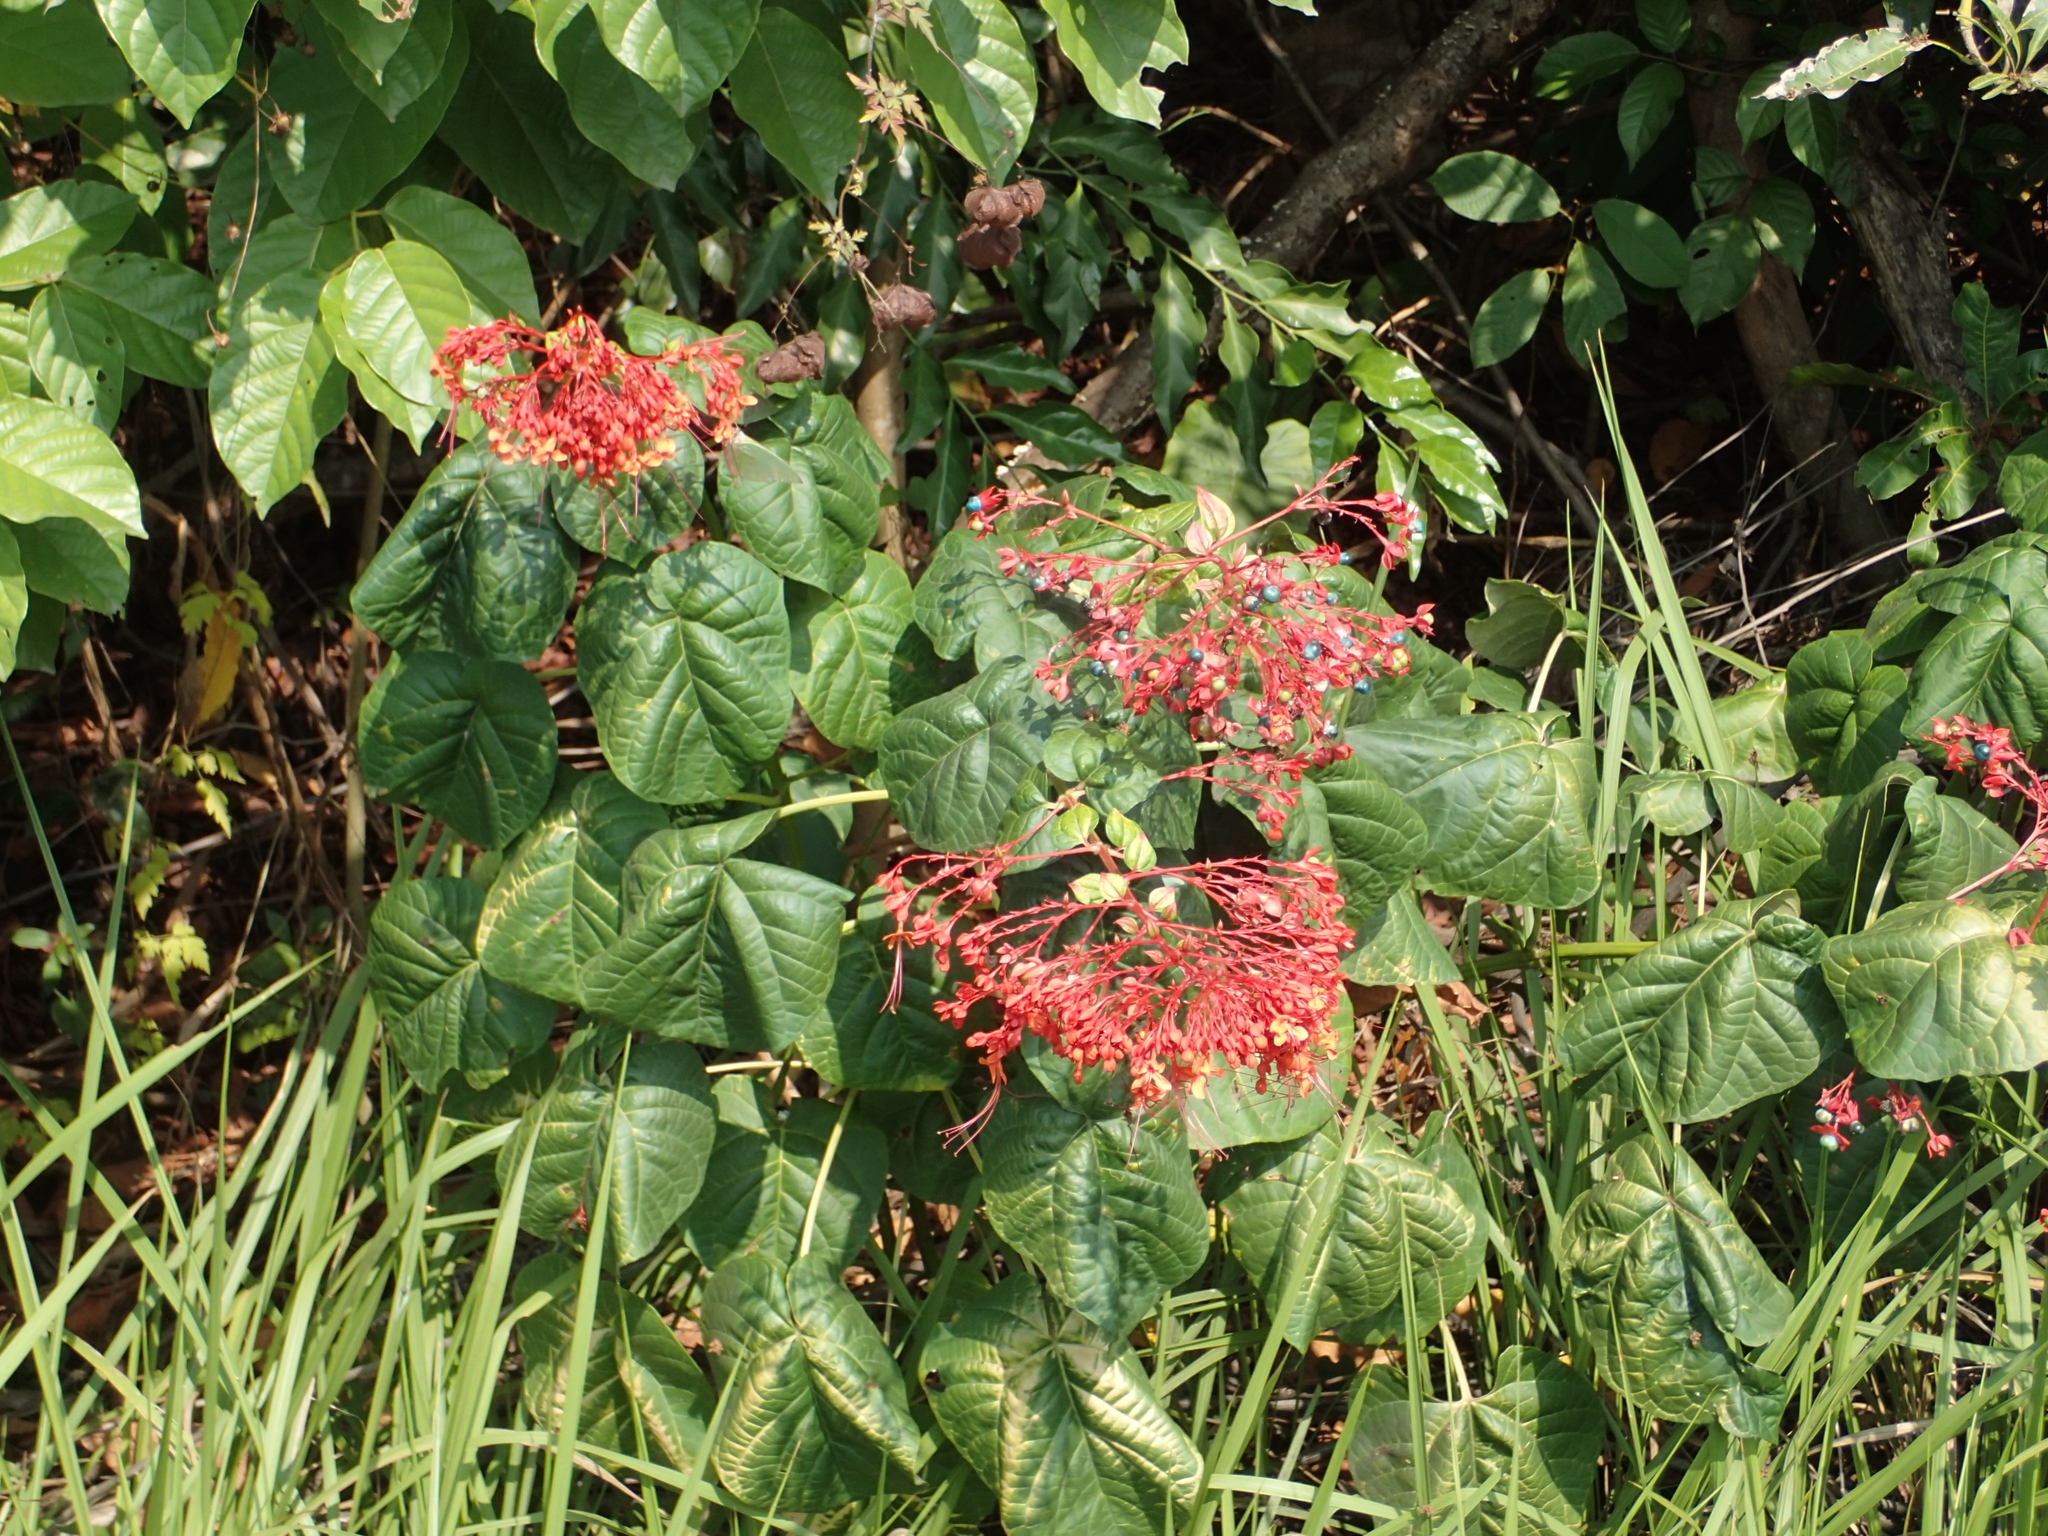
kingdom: Plantae
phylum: Tracheophyta
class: Magnoliopsida
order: Lamiales
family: Lamiaceae
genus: Clerodendrum
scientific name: Clerodendrum japonicum
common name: Japanese glorybower
